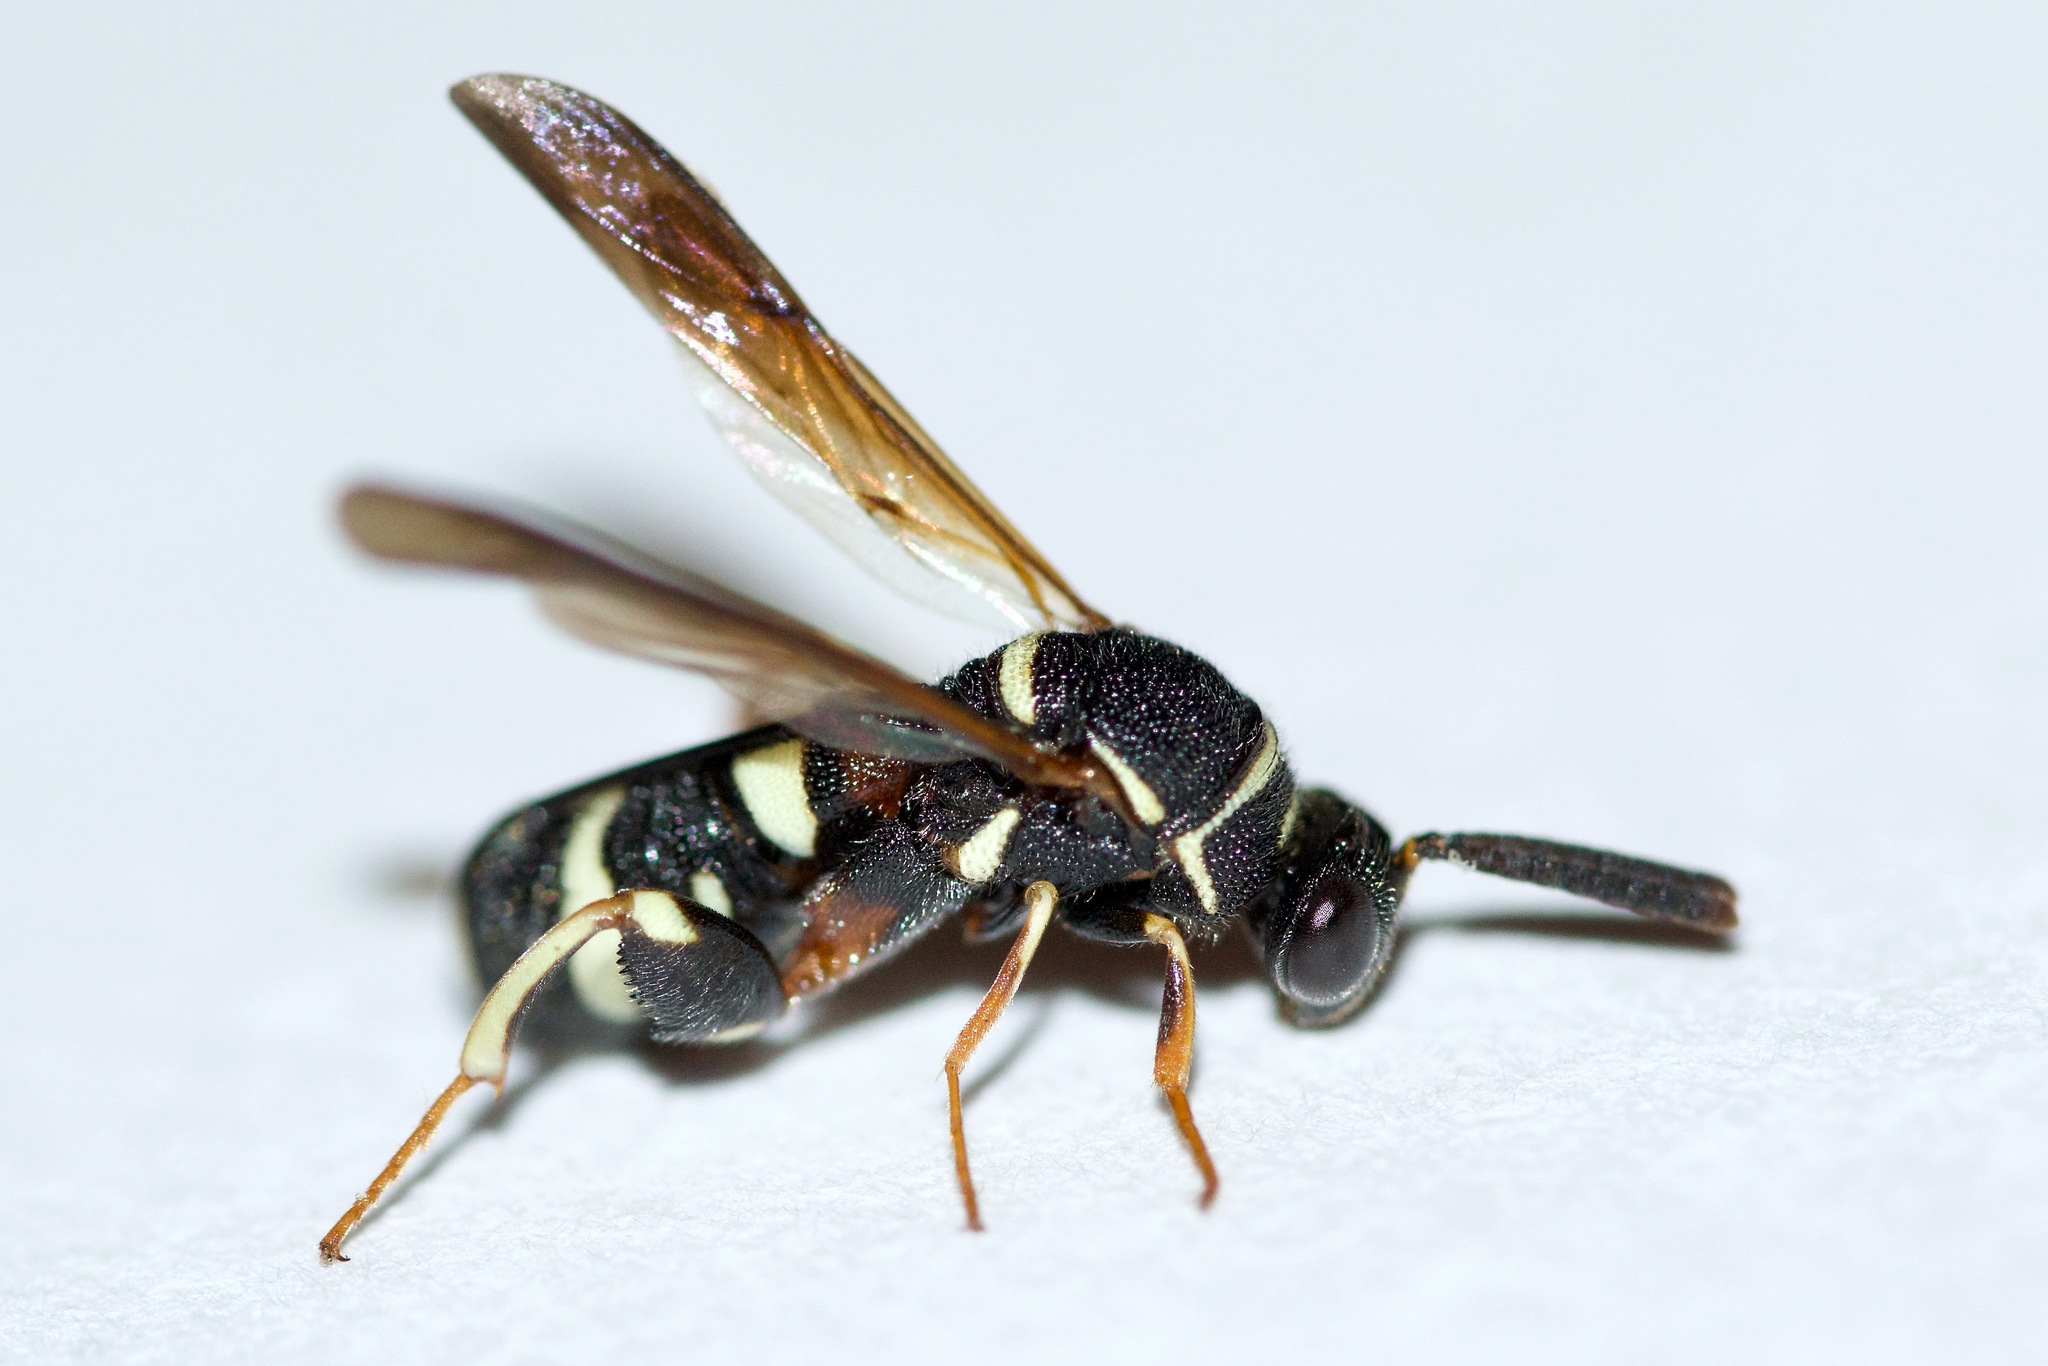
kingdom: Animalia
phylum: Arthropoda
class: Insecta
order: Hymenoptera
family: Leucospidae
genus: Leucospis
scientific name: Leucospis affinis
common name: Wasp
